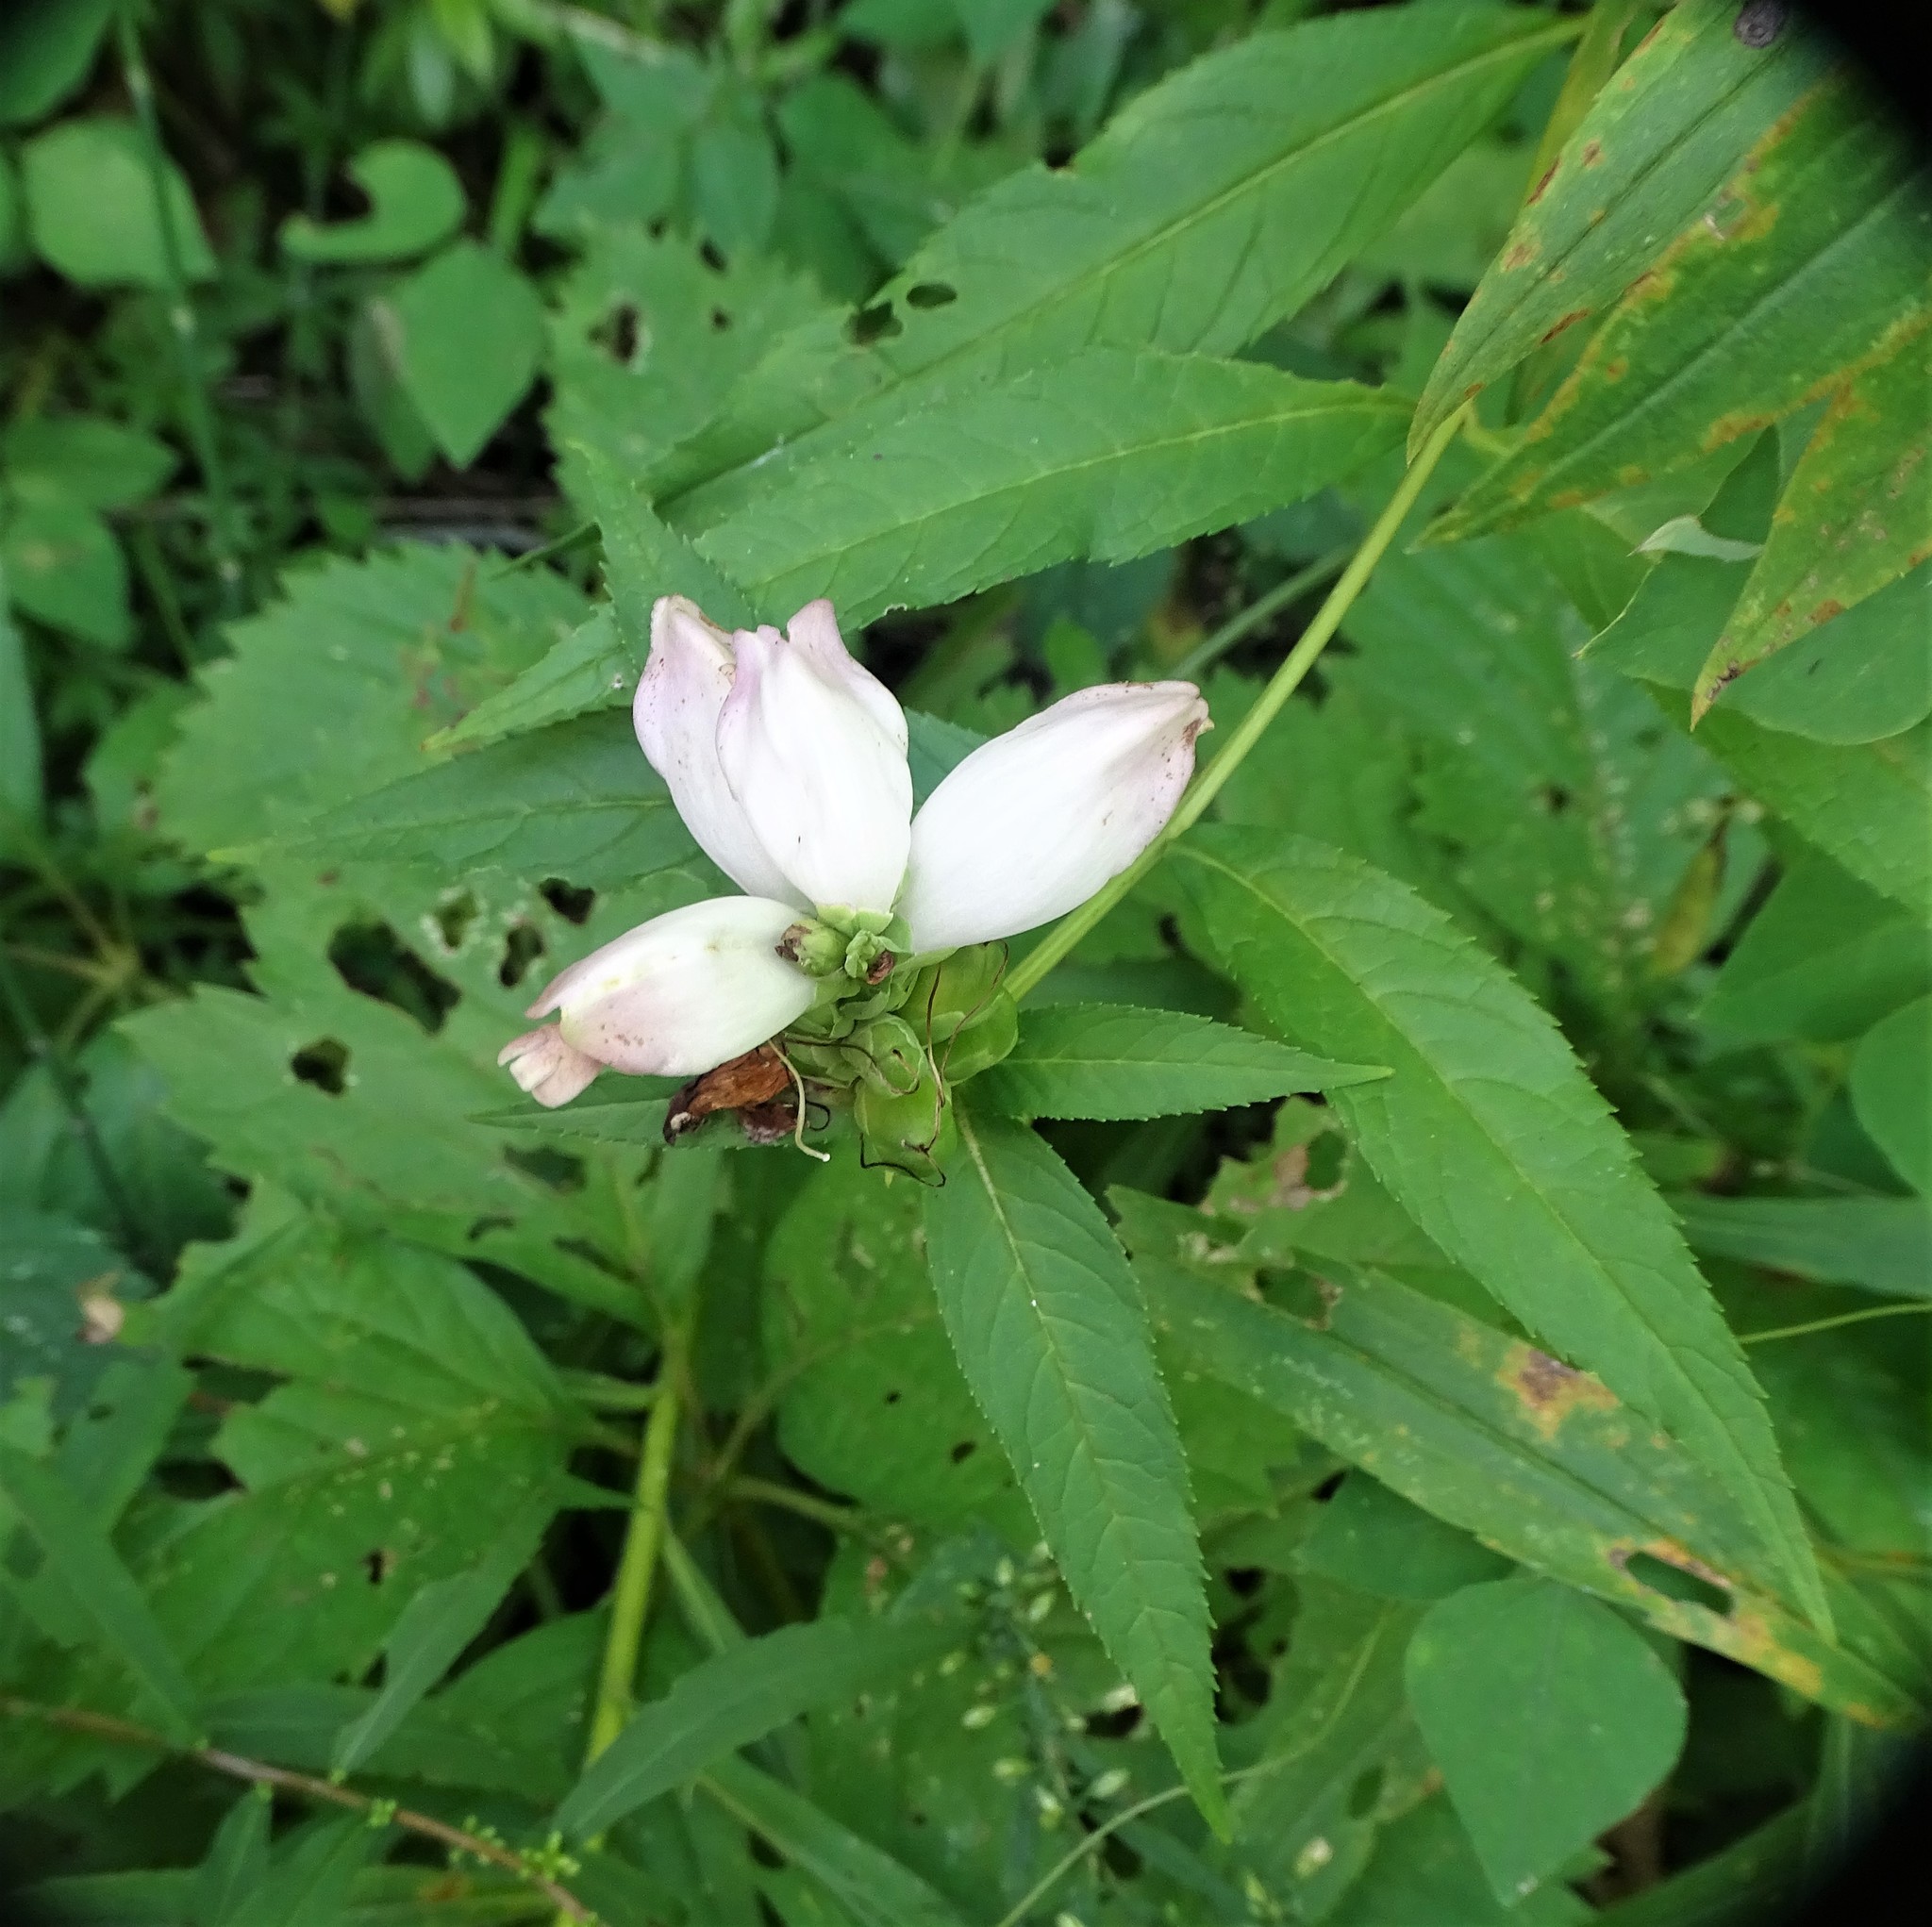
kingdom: Plantae
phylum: Tracheophyta
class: Magnoliopsida
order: Lamiales
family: Plantaginaceae
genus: Chelone
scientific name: Chelone glabra
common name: Snakehead
